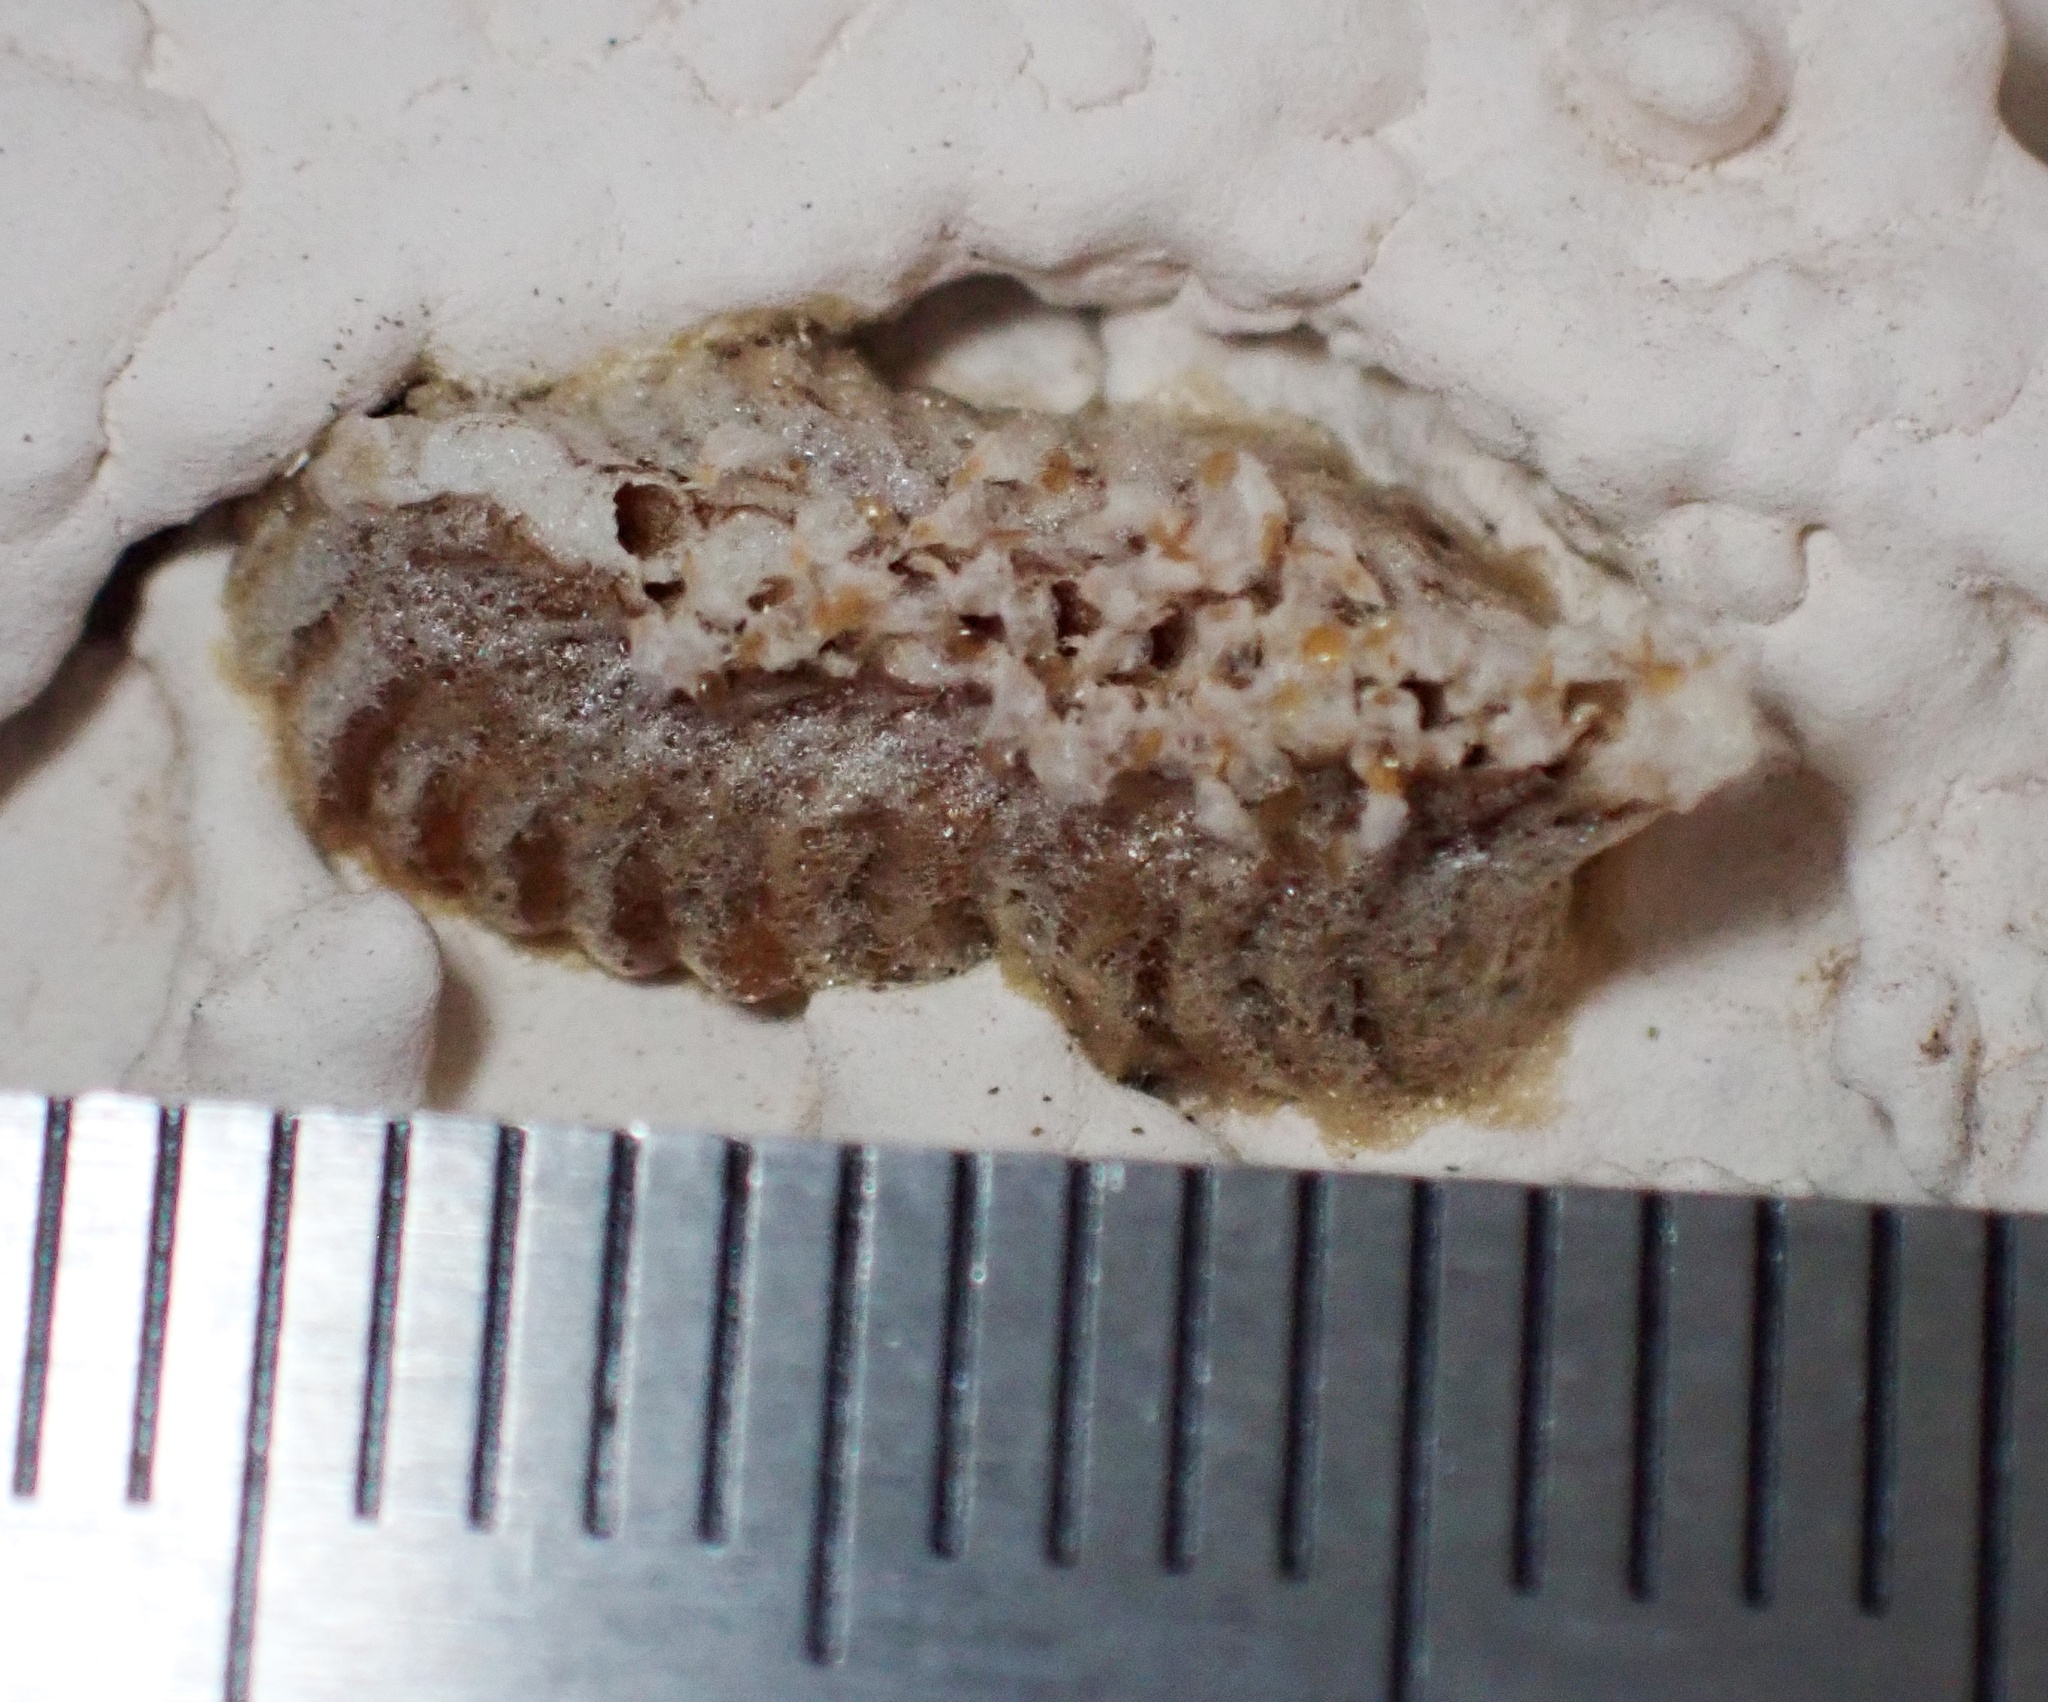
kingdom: Animalia
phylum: Arthropoda
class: Insecta
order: Mantodea
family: Eremiaphilidae
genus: Iris
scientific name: Iris oratoria
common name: Mediterranean mantis
